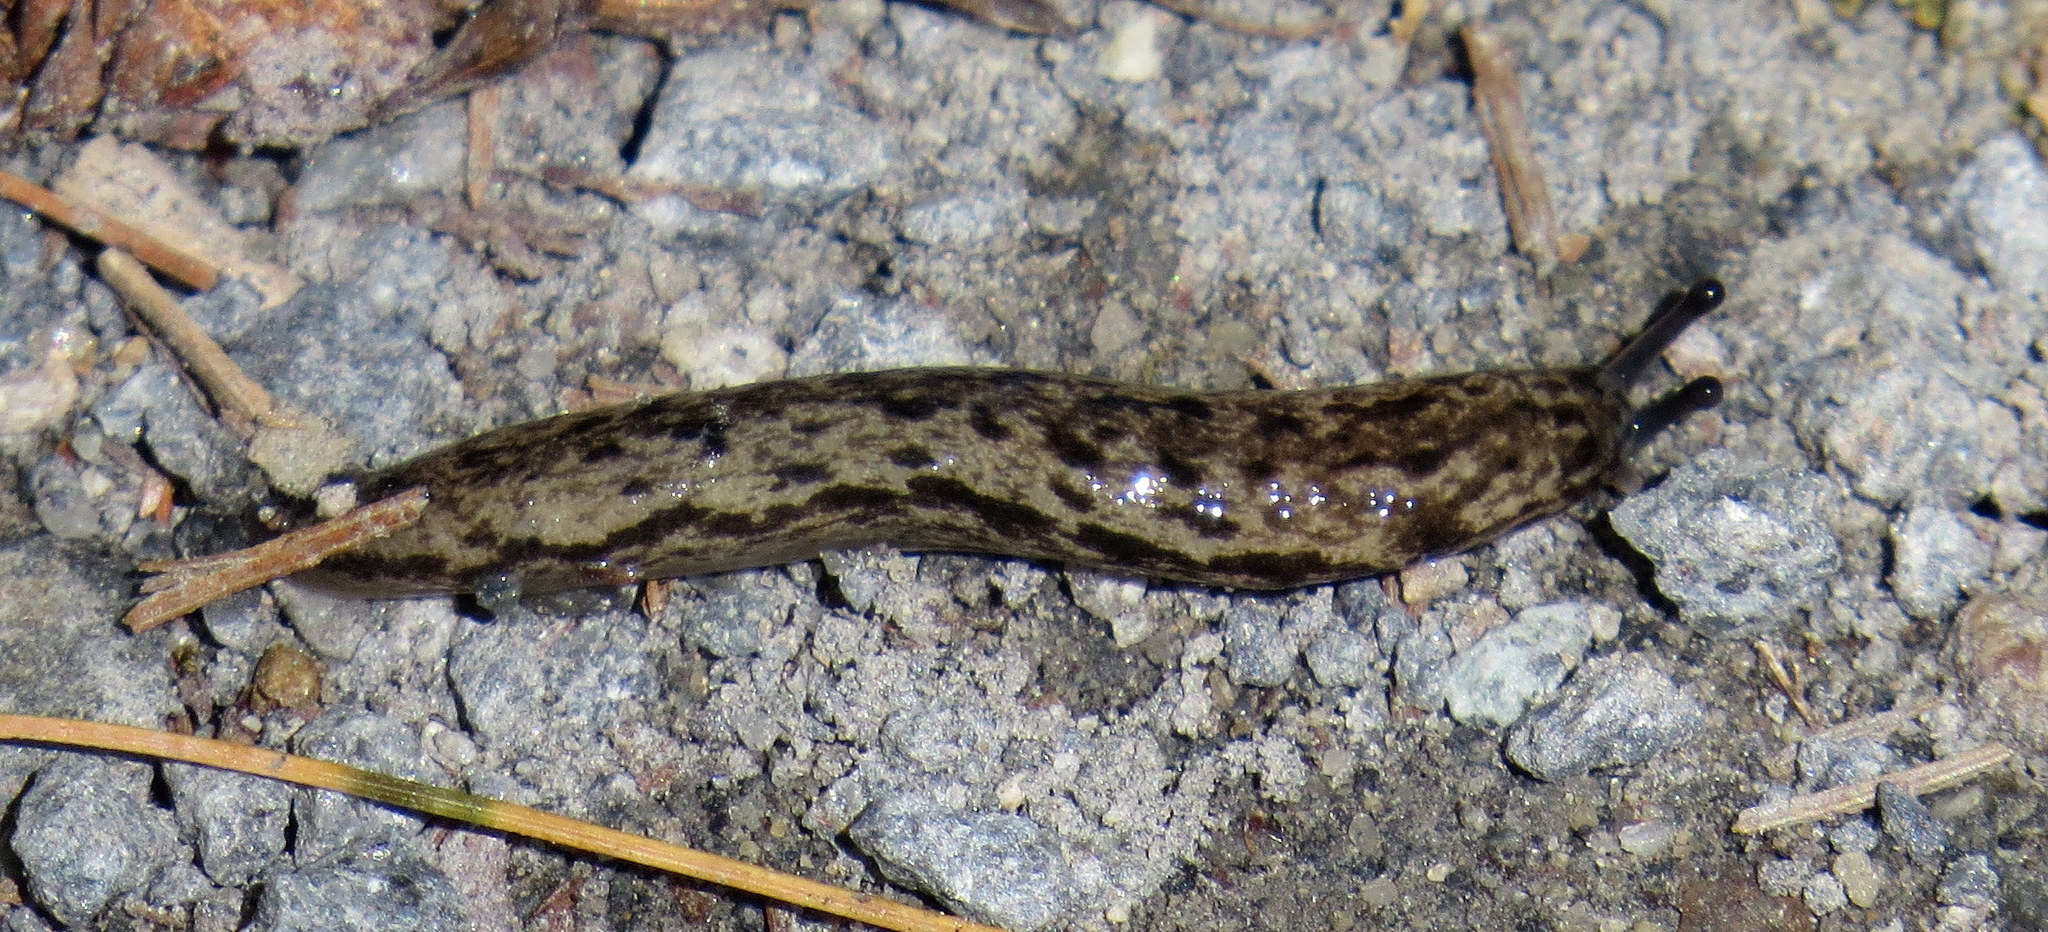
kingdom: Animalia
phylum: Mollusca
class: Gastropoda
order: Stylommatophora
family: Philomycidae
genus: Megapallifera
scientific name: Megapallifera mutabilis
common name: Changeable mantleslug
